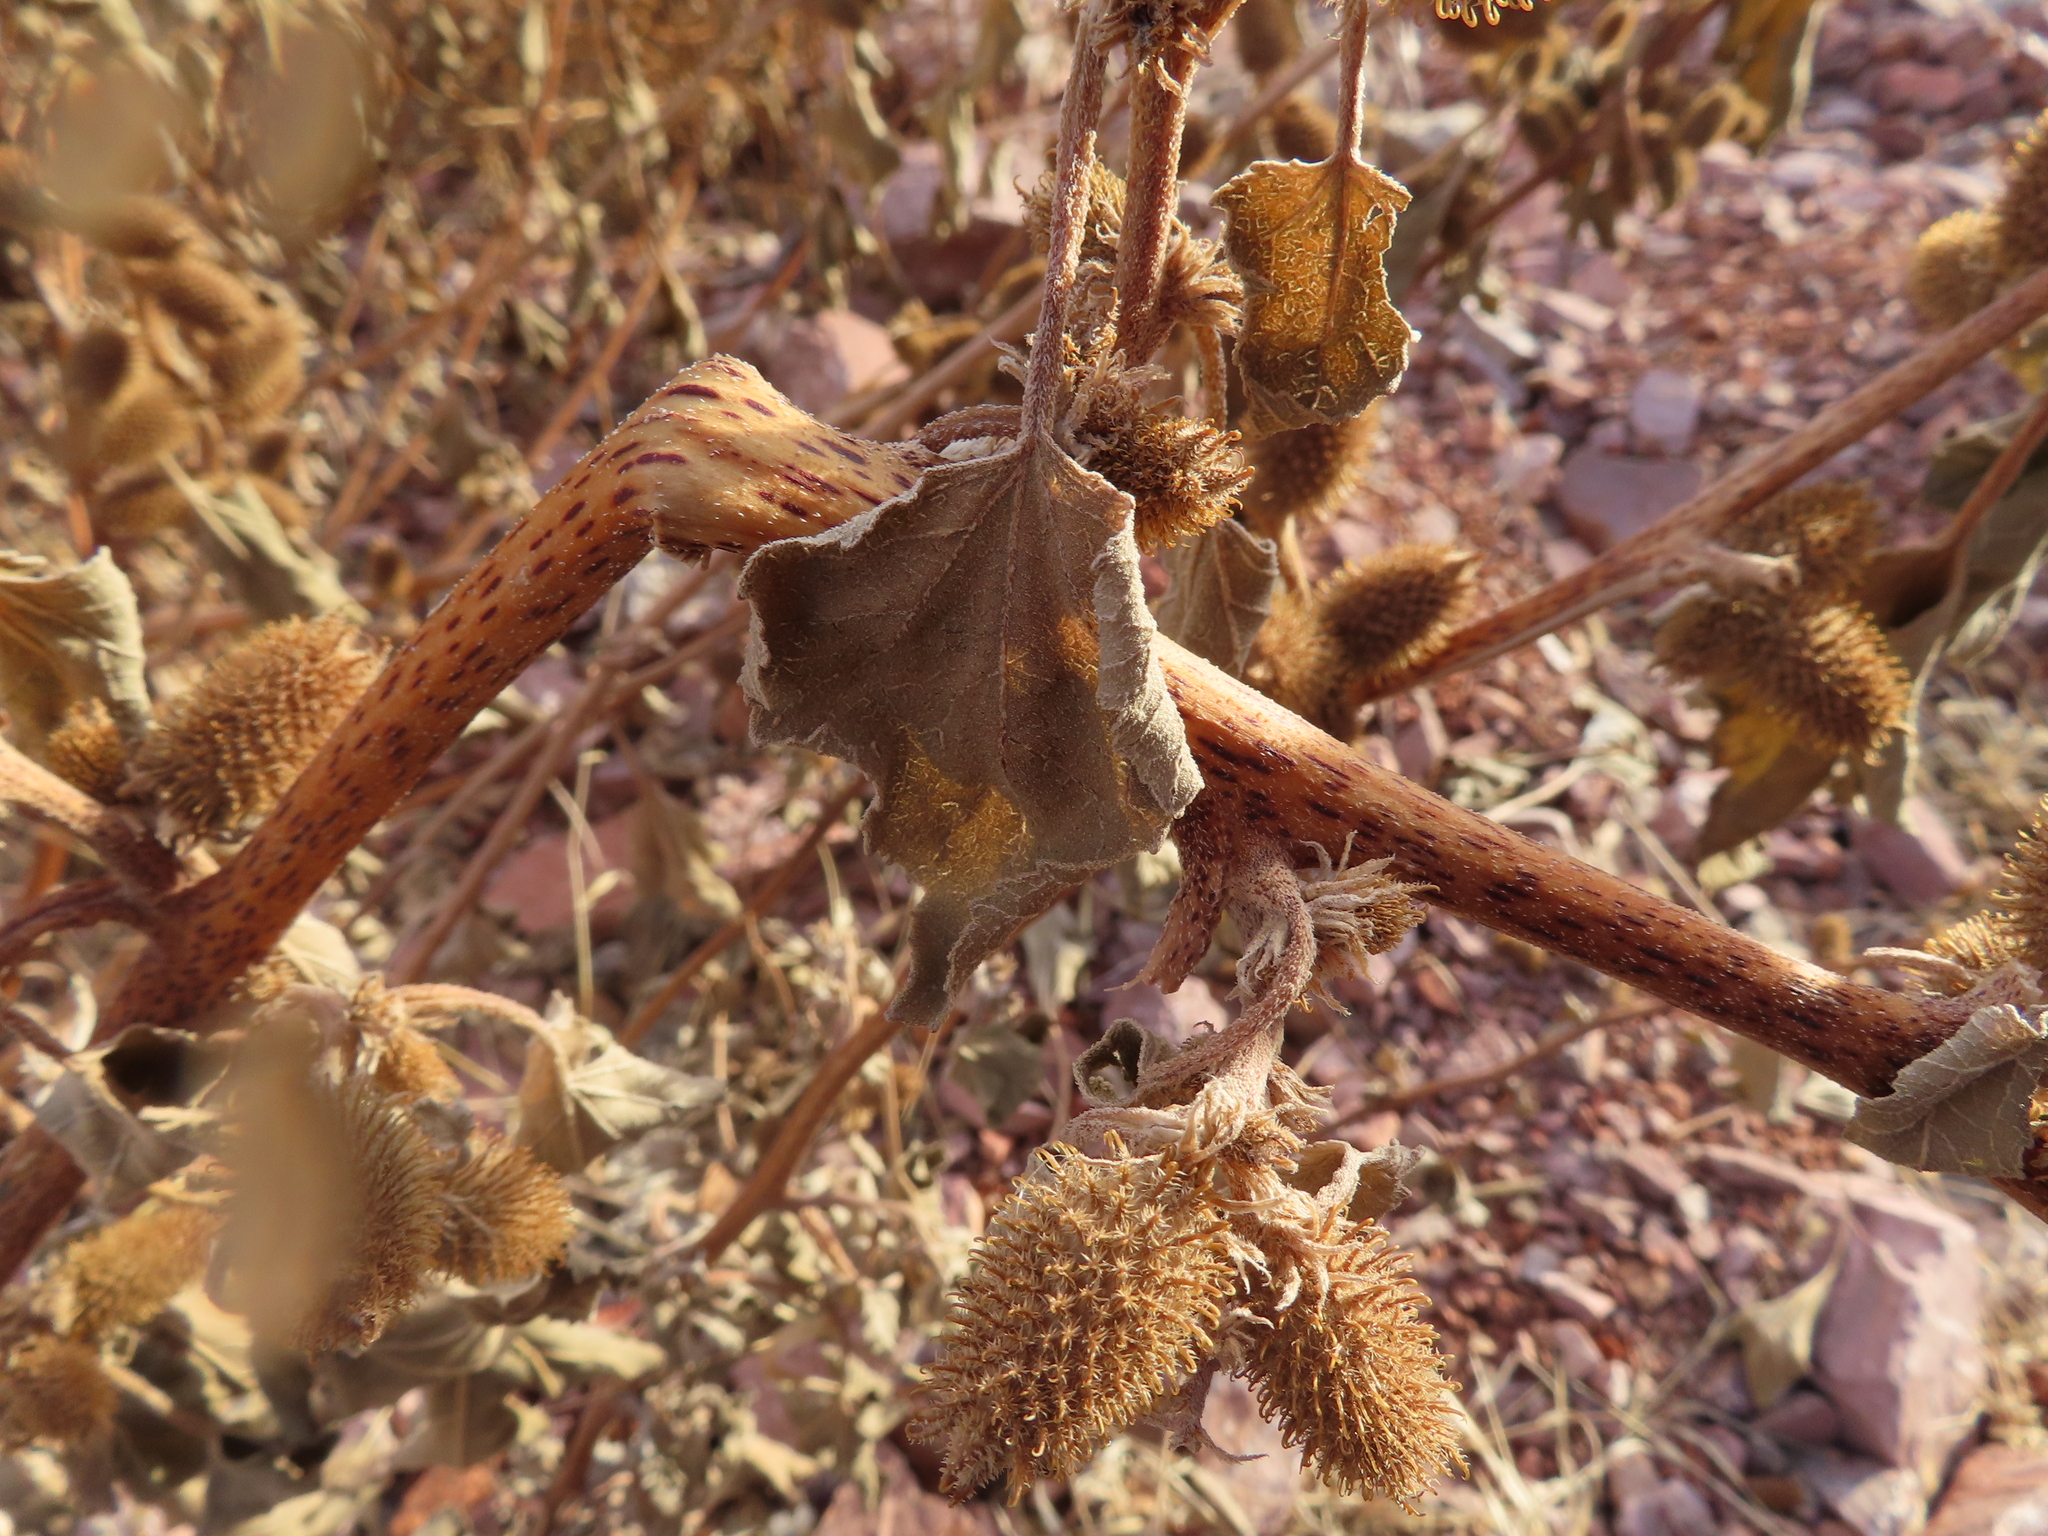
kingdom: Plantae
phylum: Tracheophyta
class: Magnoliopsida
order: Asterales
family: Asteraceae
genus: Xanthium
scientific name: Xanthium strumarium
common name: Rough cocklebur
